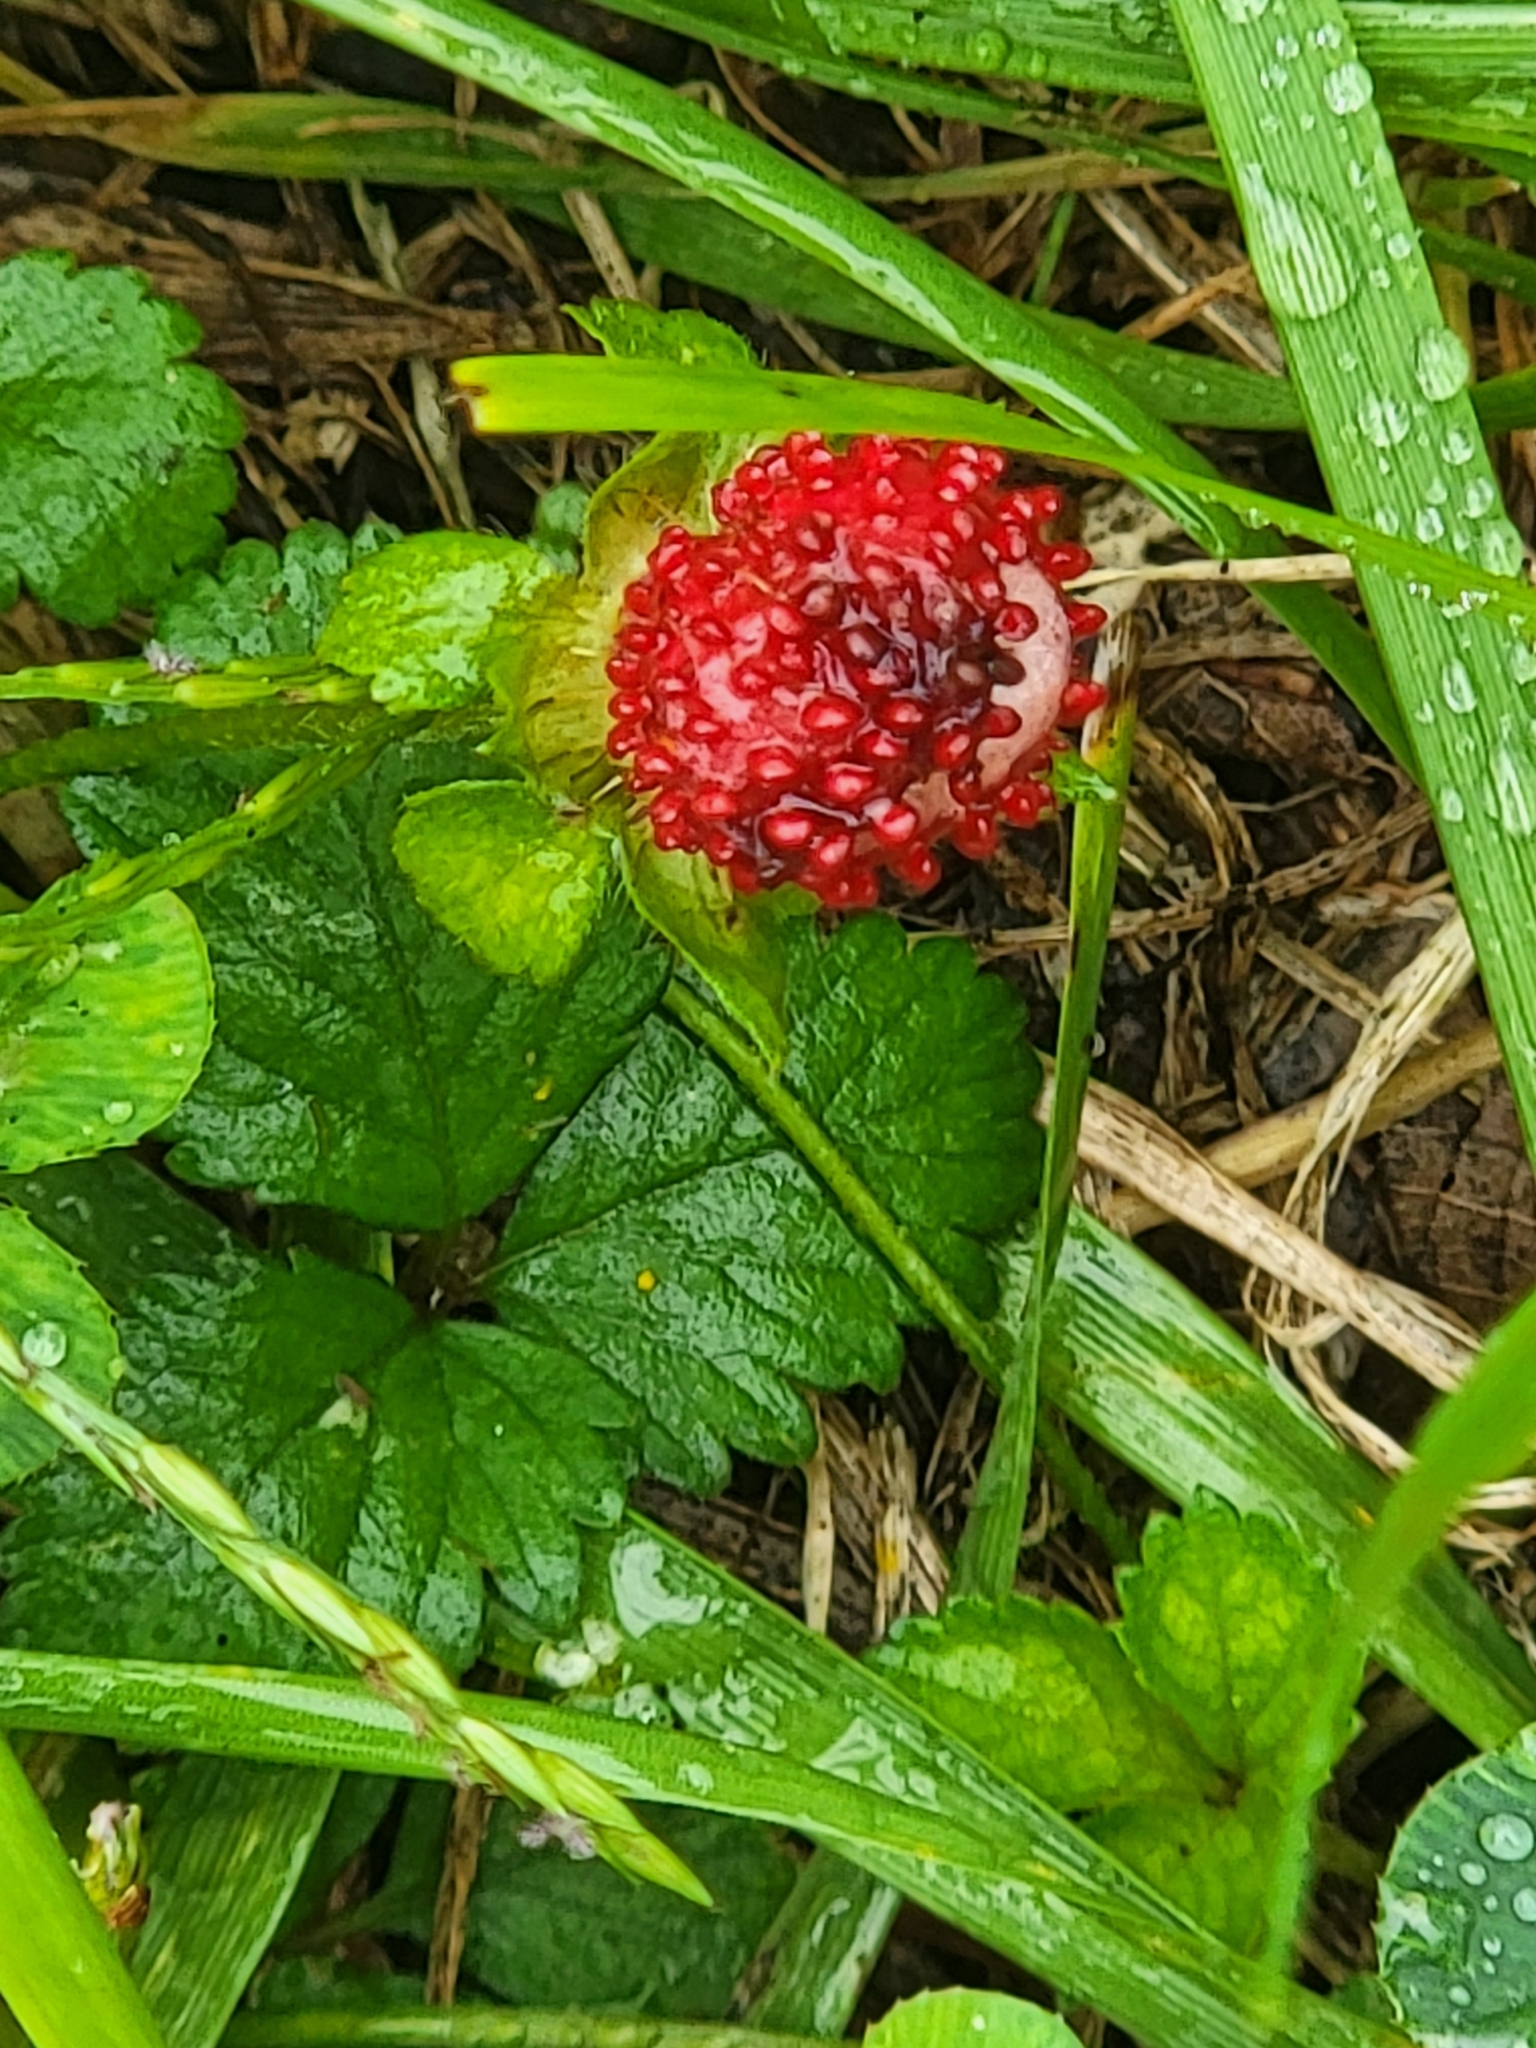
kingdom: Plantae
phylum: Tracheophyta
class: Magnoliopsida
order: Rosales
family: Rosaceae
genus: Potentilla
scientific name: Potentilla indica
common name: Yellow-flowered strawberry
